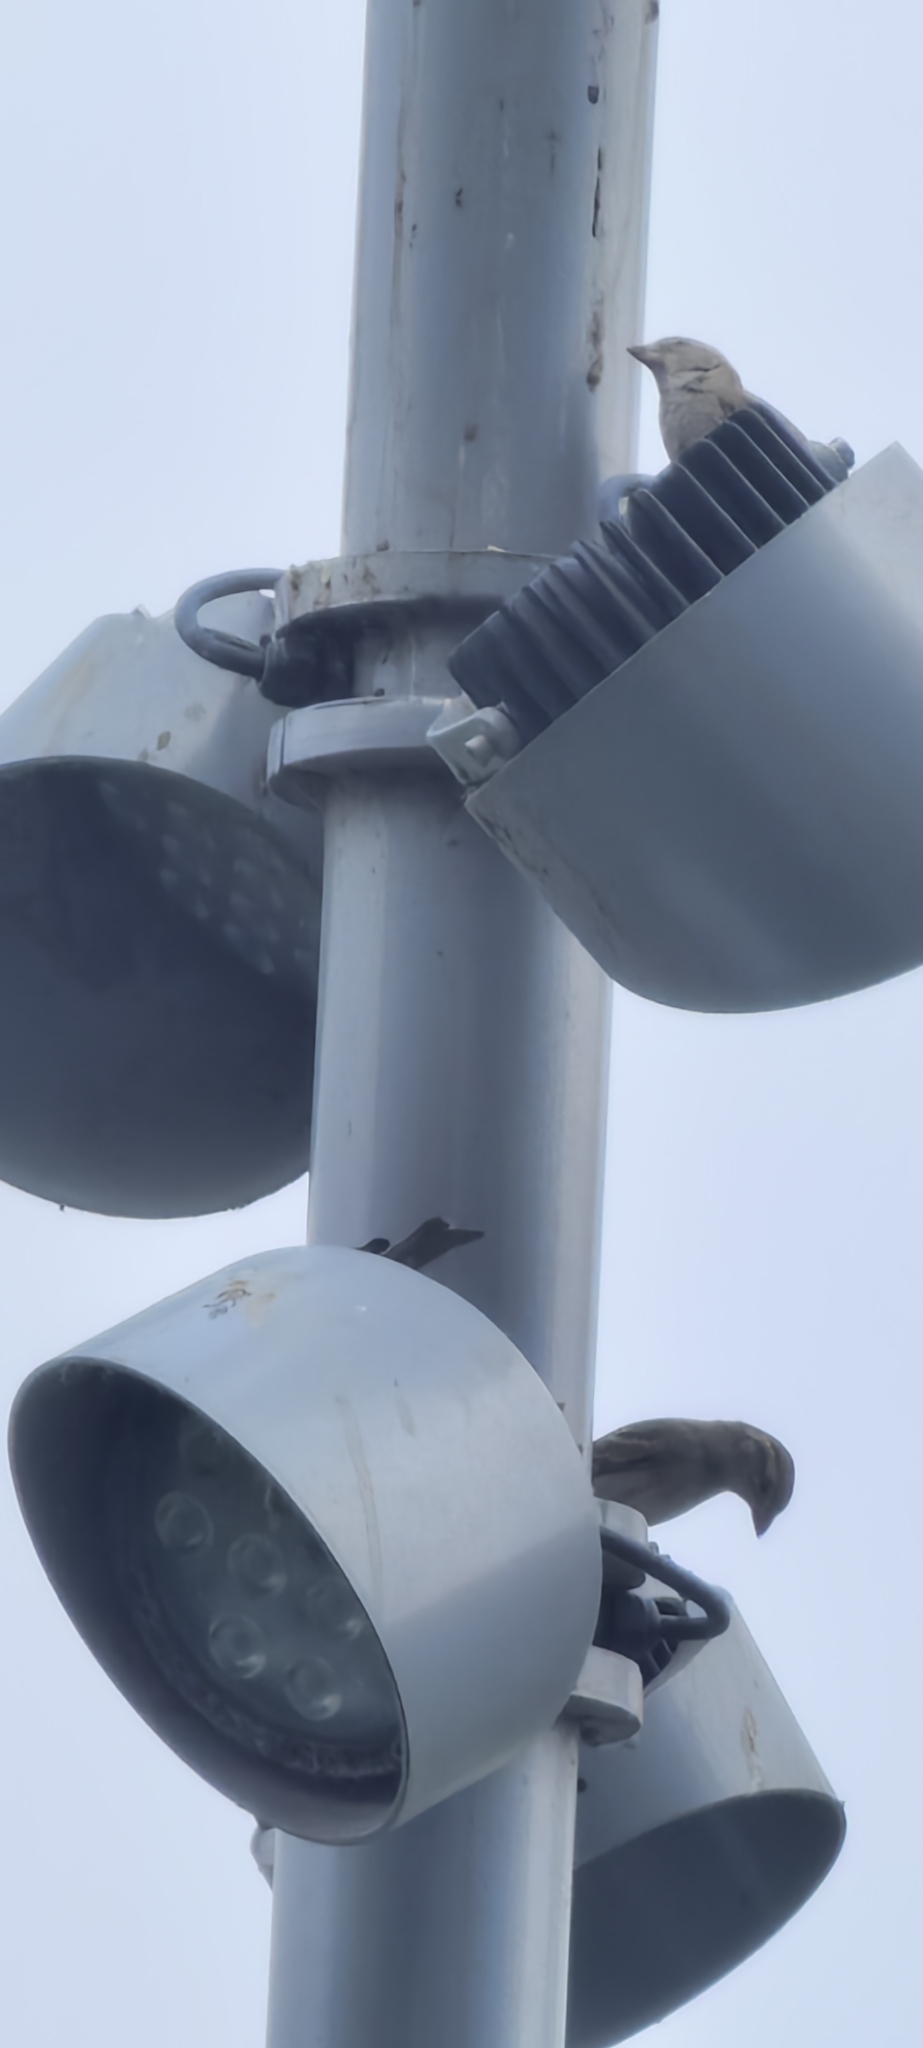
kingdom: Animalia
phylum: Chordata
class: Aves
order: Passeriformes
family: Passeridae
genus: Passer
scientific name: Passer domesticus
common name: House sparrow
